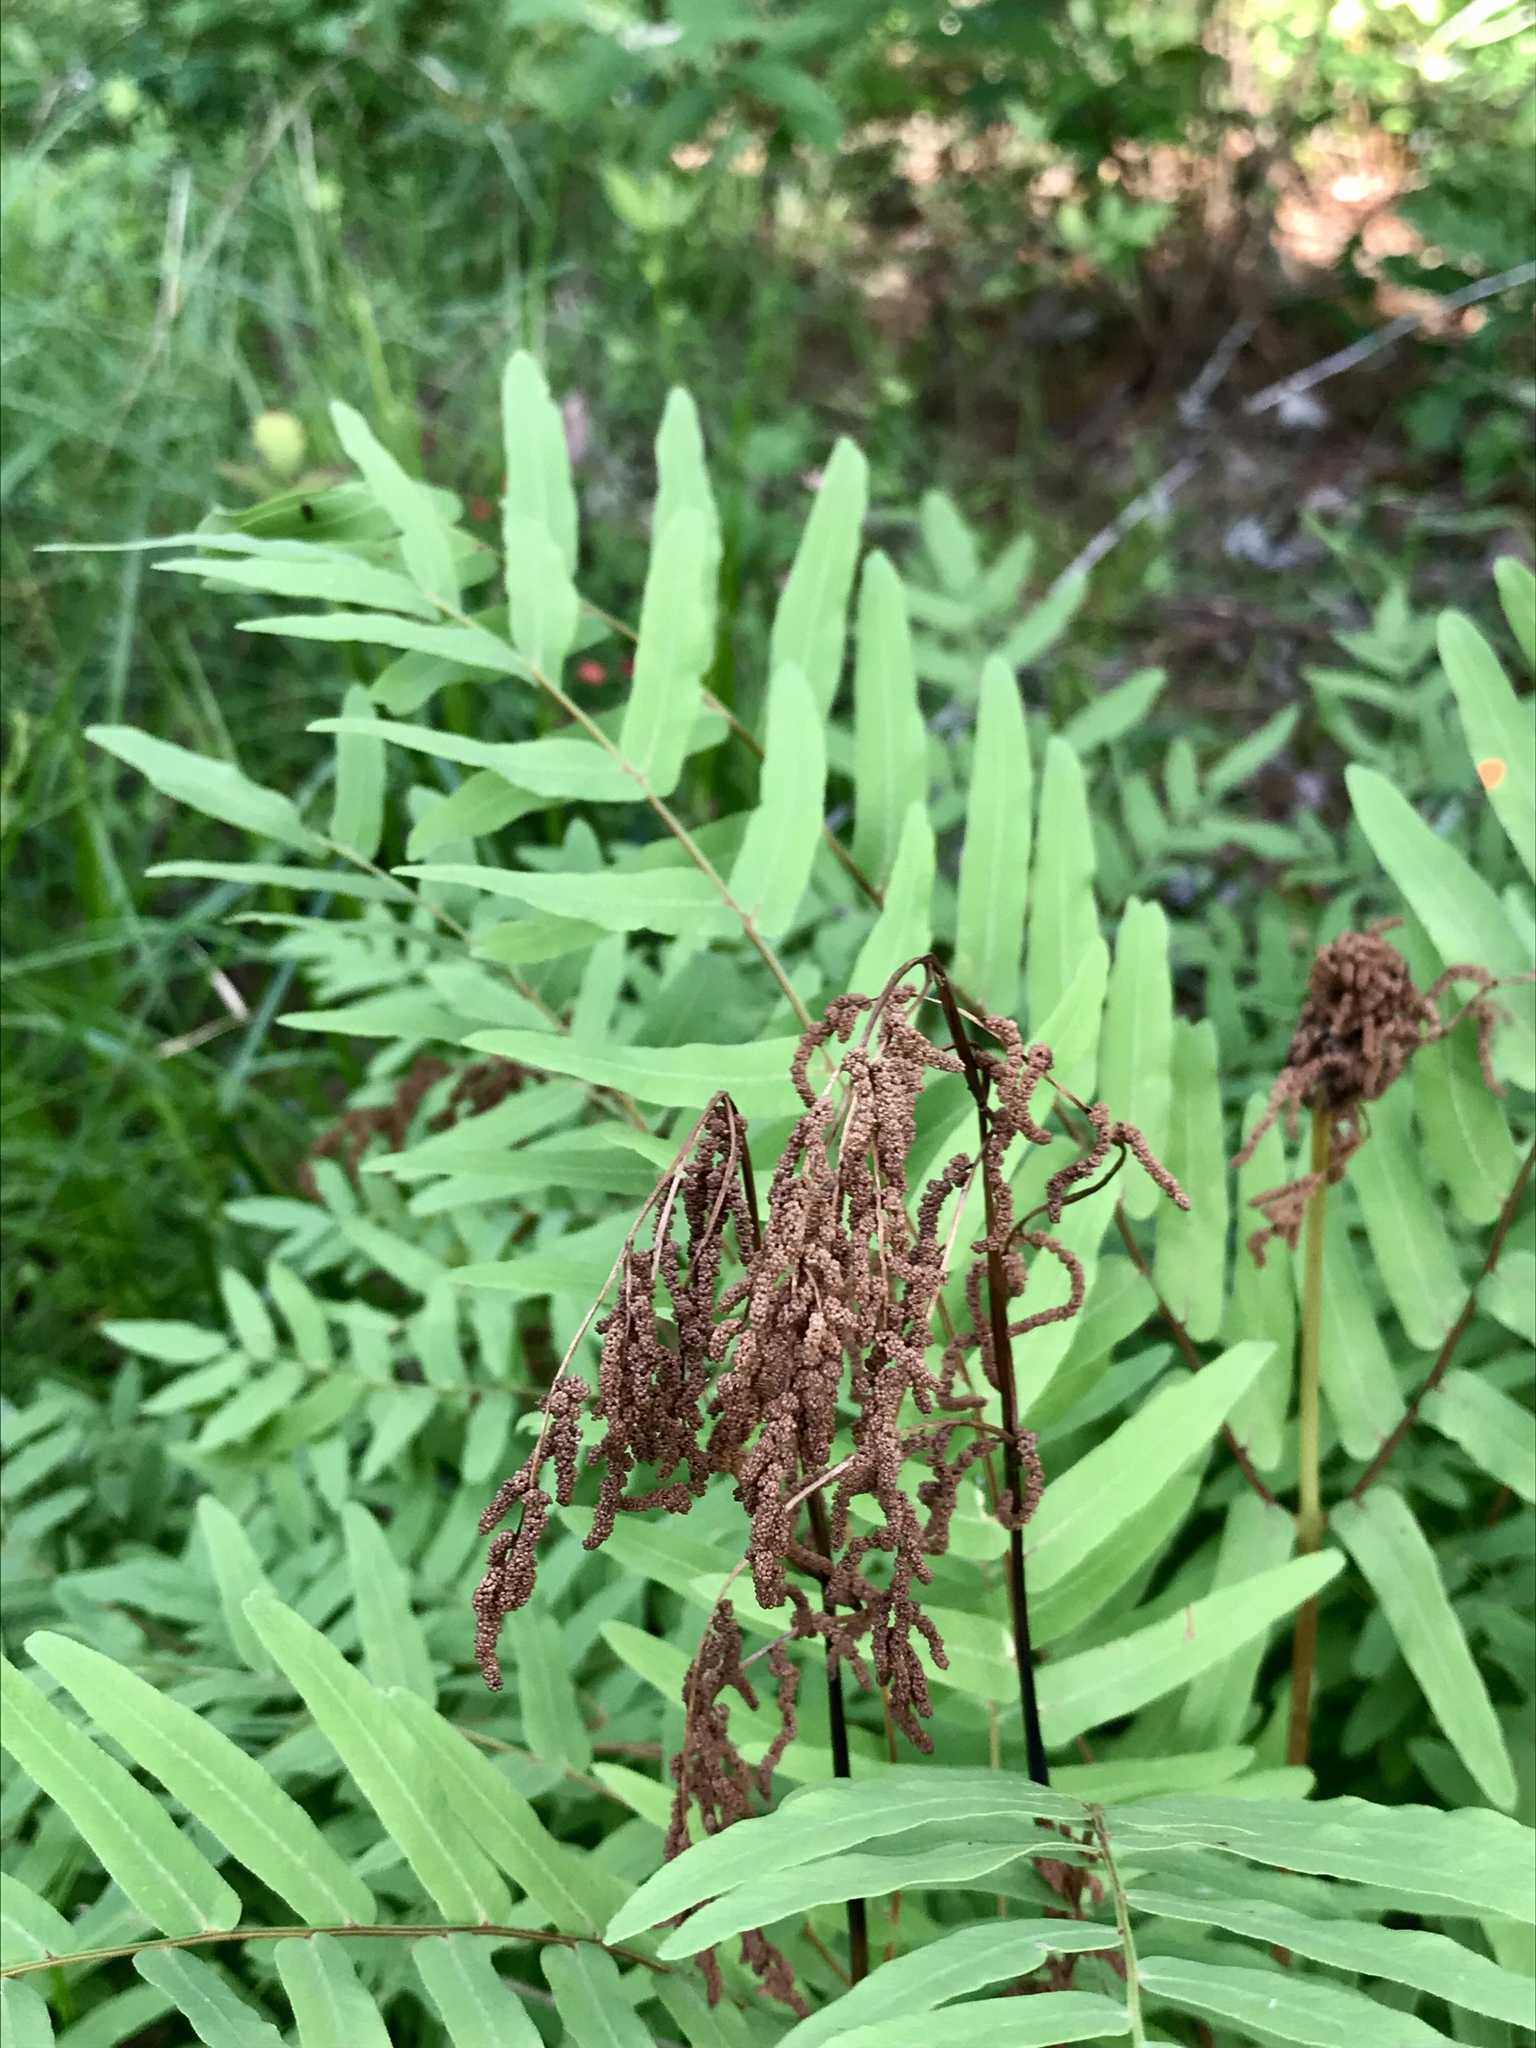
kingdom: Plantae
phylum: Tracheophyta
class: Polypodiopsida
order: Osmundales
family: Osmundaceae
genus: Osmunda
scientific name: Osmunda spectabilis
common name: American royal fern
